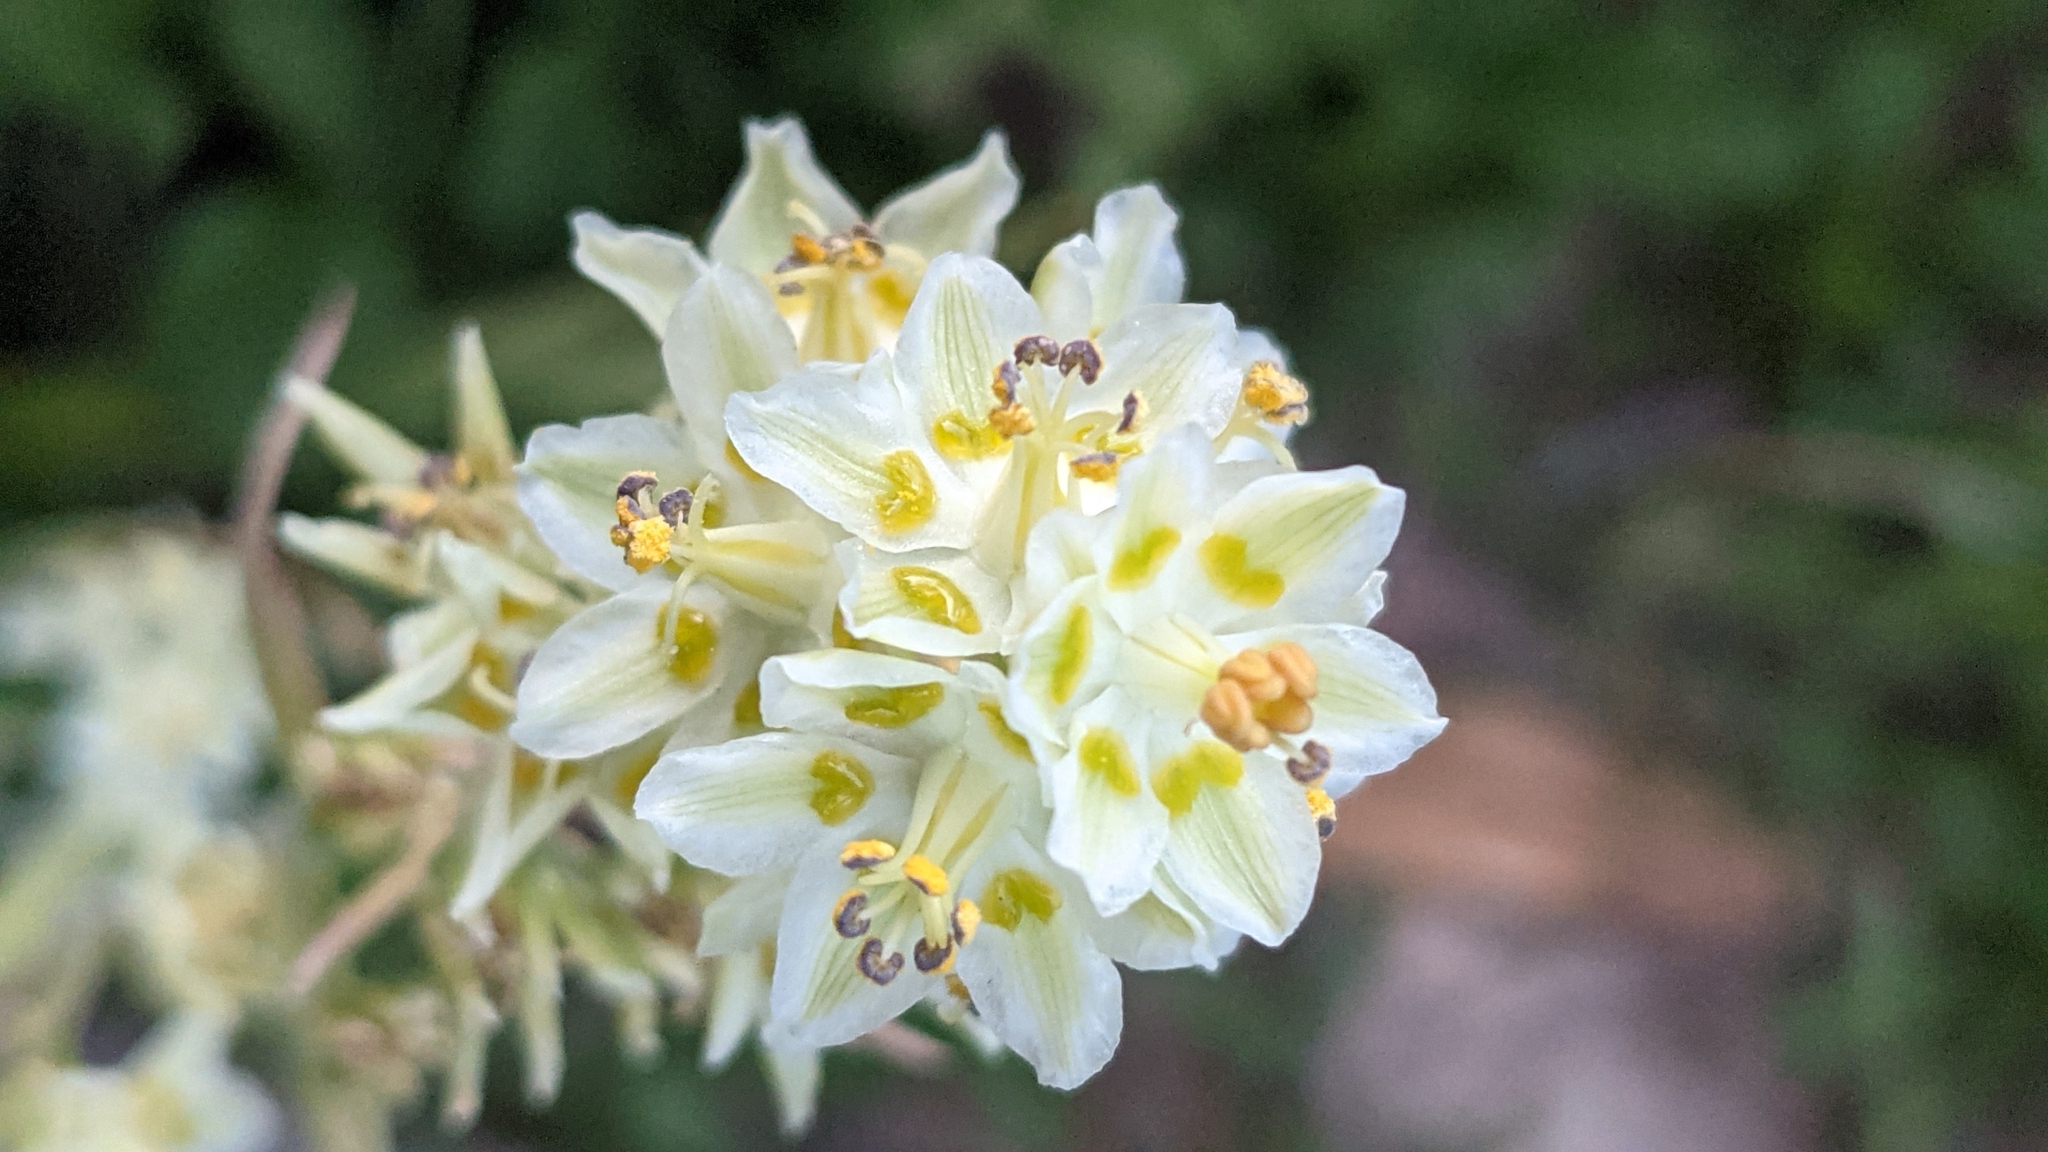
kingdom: Plantae
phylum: Tracheophyta
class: Liliopsida
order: Liliales
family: Melanthiaceae
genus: Anticlea
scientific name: Anticlea elegans
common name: Mountain death camas
